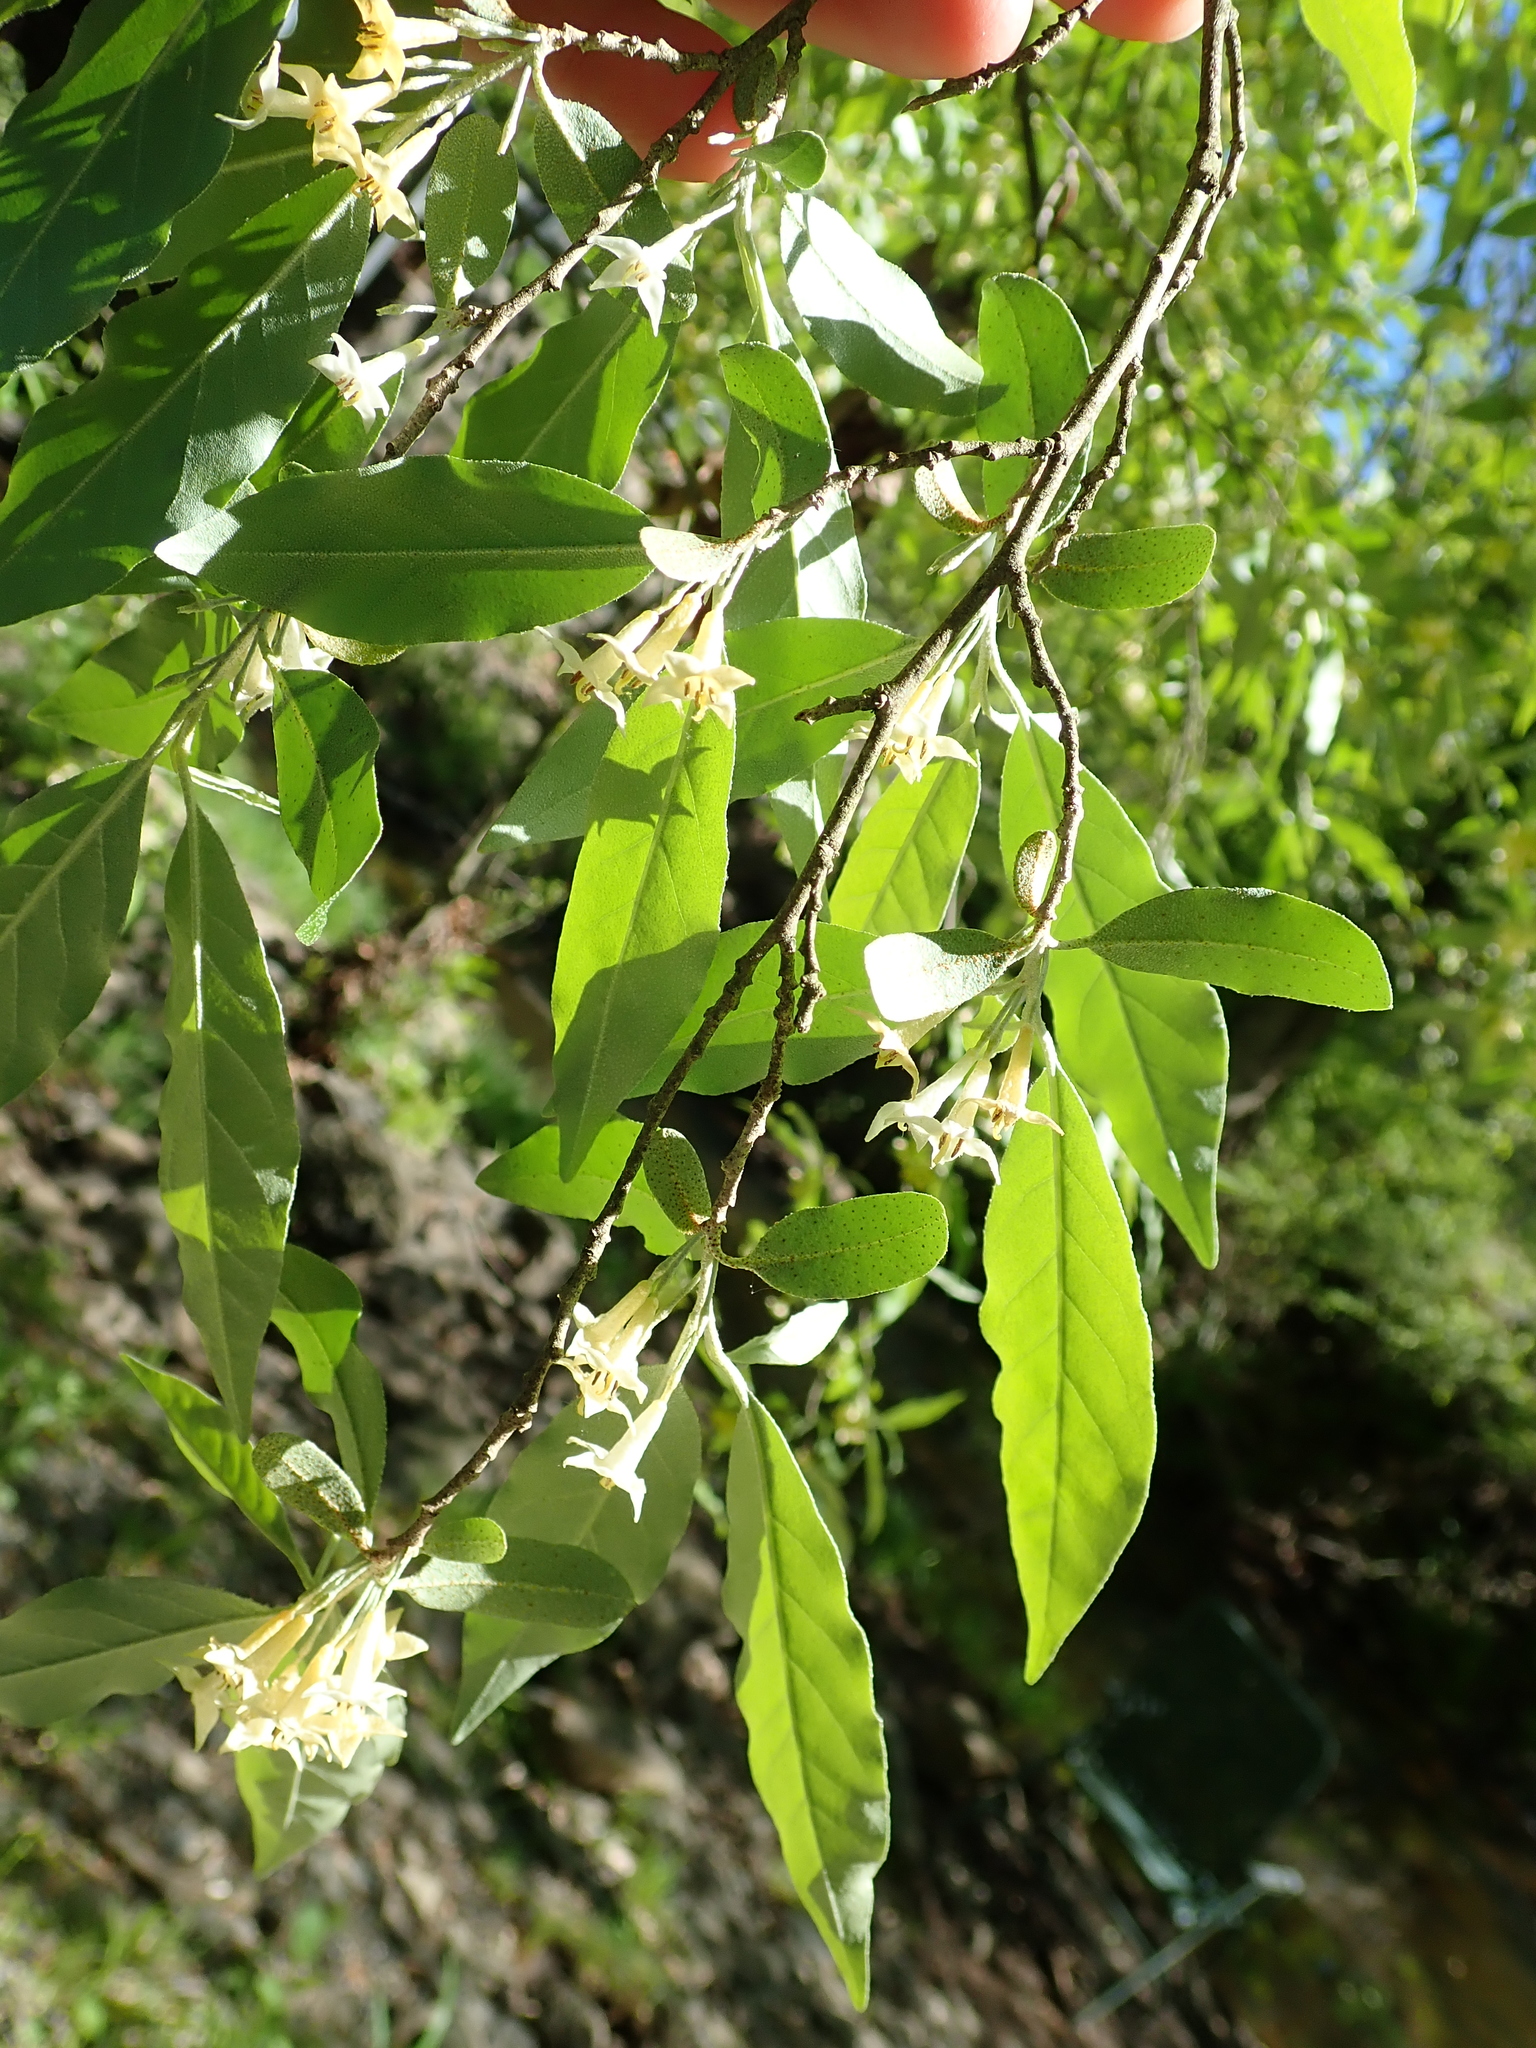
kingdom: Plantae
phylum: Tracheophyta
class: Magnoliopsida
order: Rosales
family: Elaeagnaceae
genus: Elaeagnus
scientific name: Elaeagnus umbellata
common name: Autumn olive
